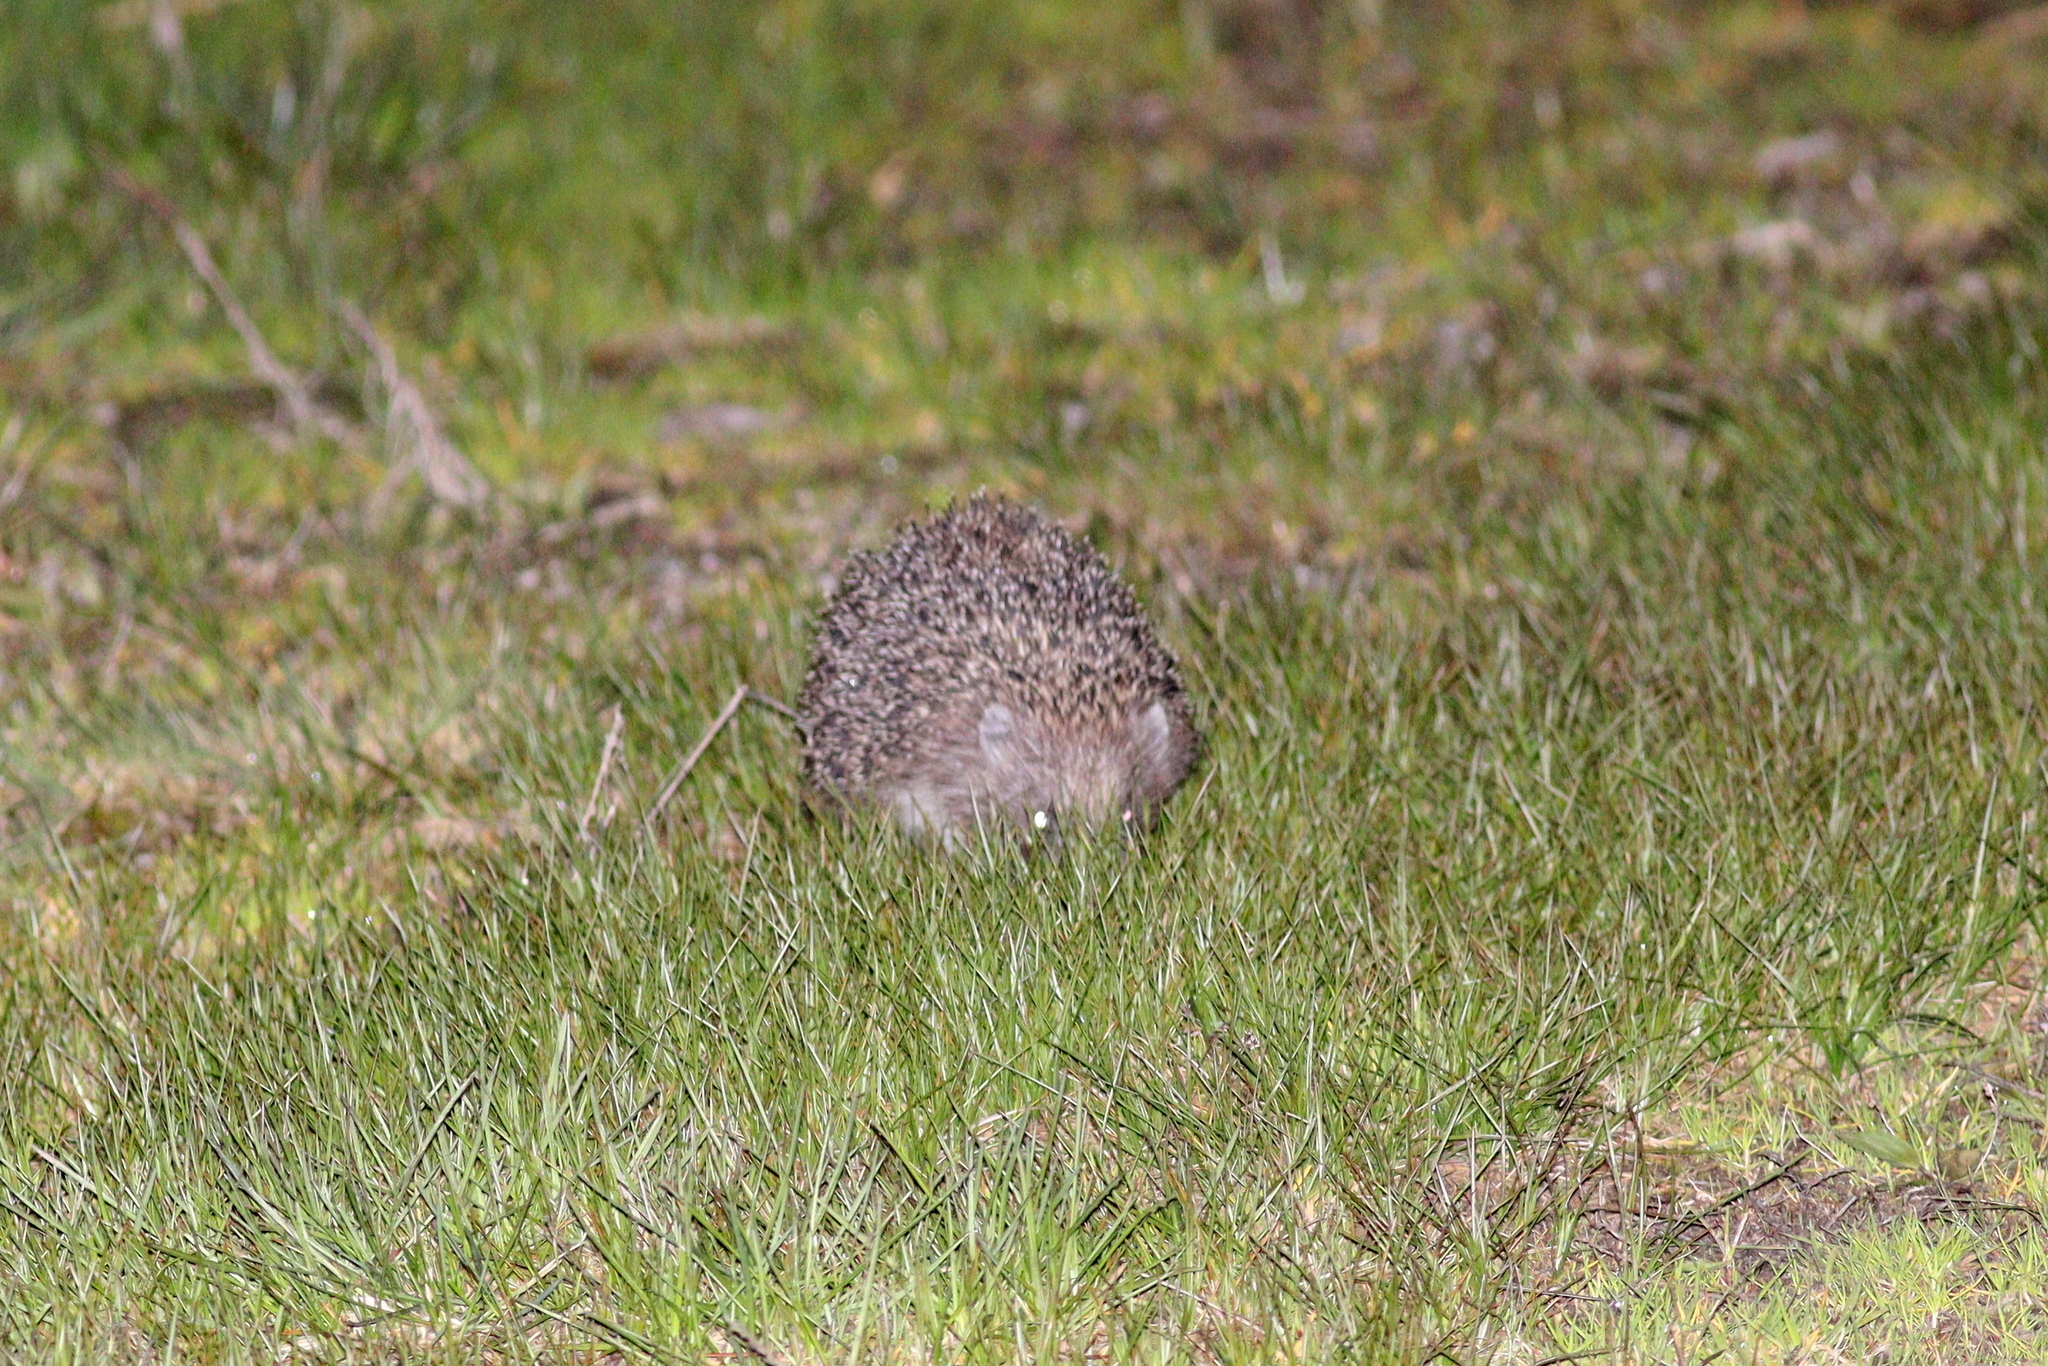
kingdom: Animalia
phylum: Chordata
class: Mammalia
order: Erinaceomorpha
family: Erinaceidae
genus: Erinaceus
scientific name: Erinaceus roumanicus
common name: Northern white-breasted hedgehog
